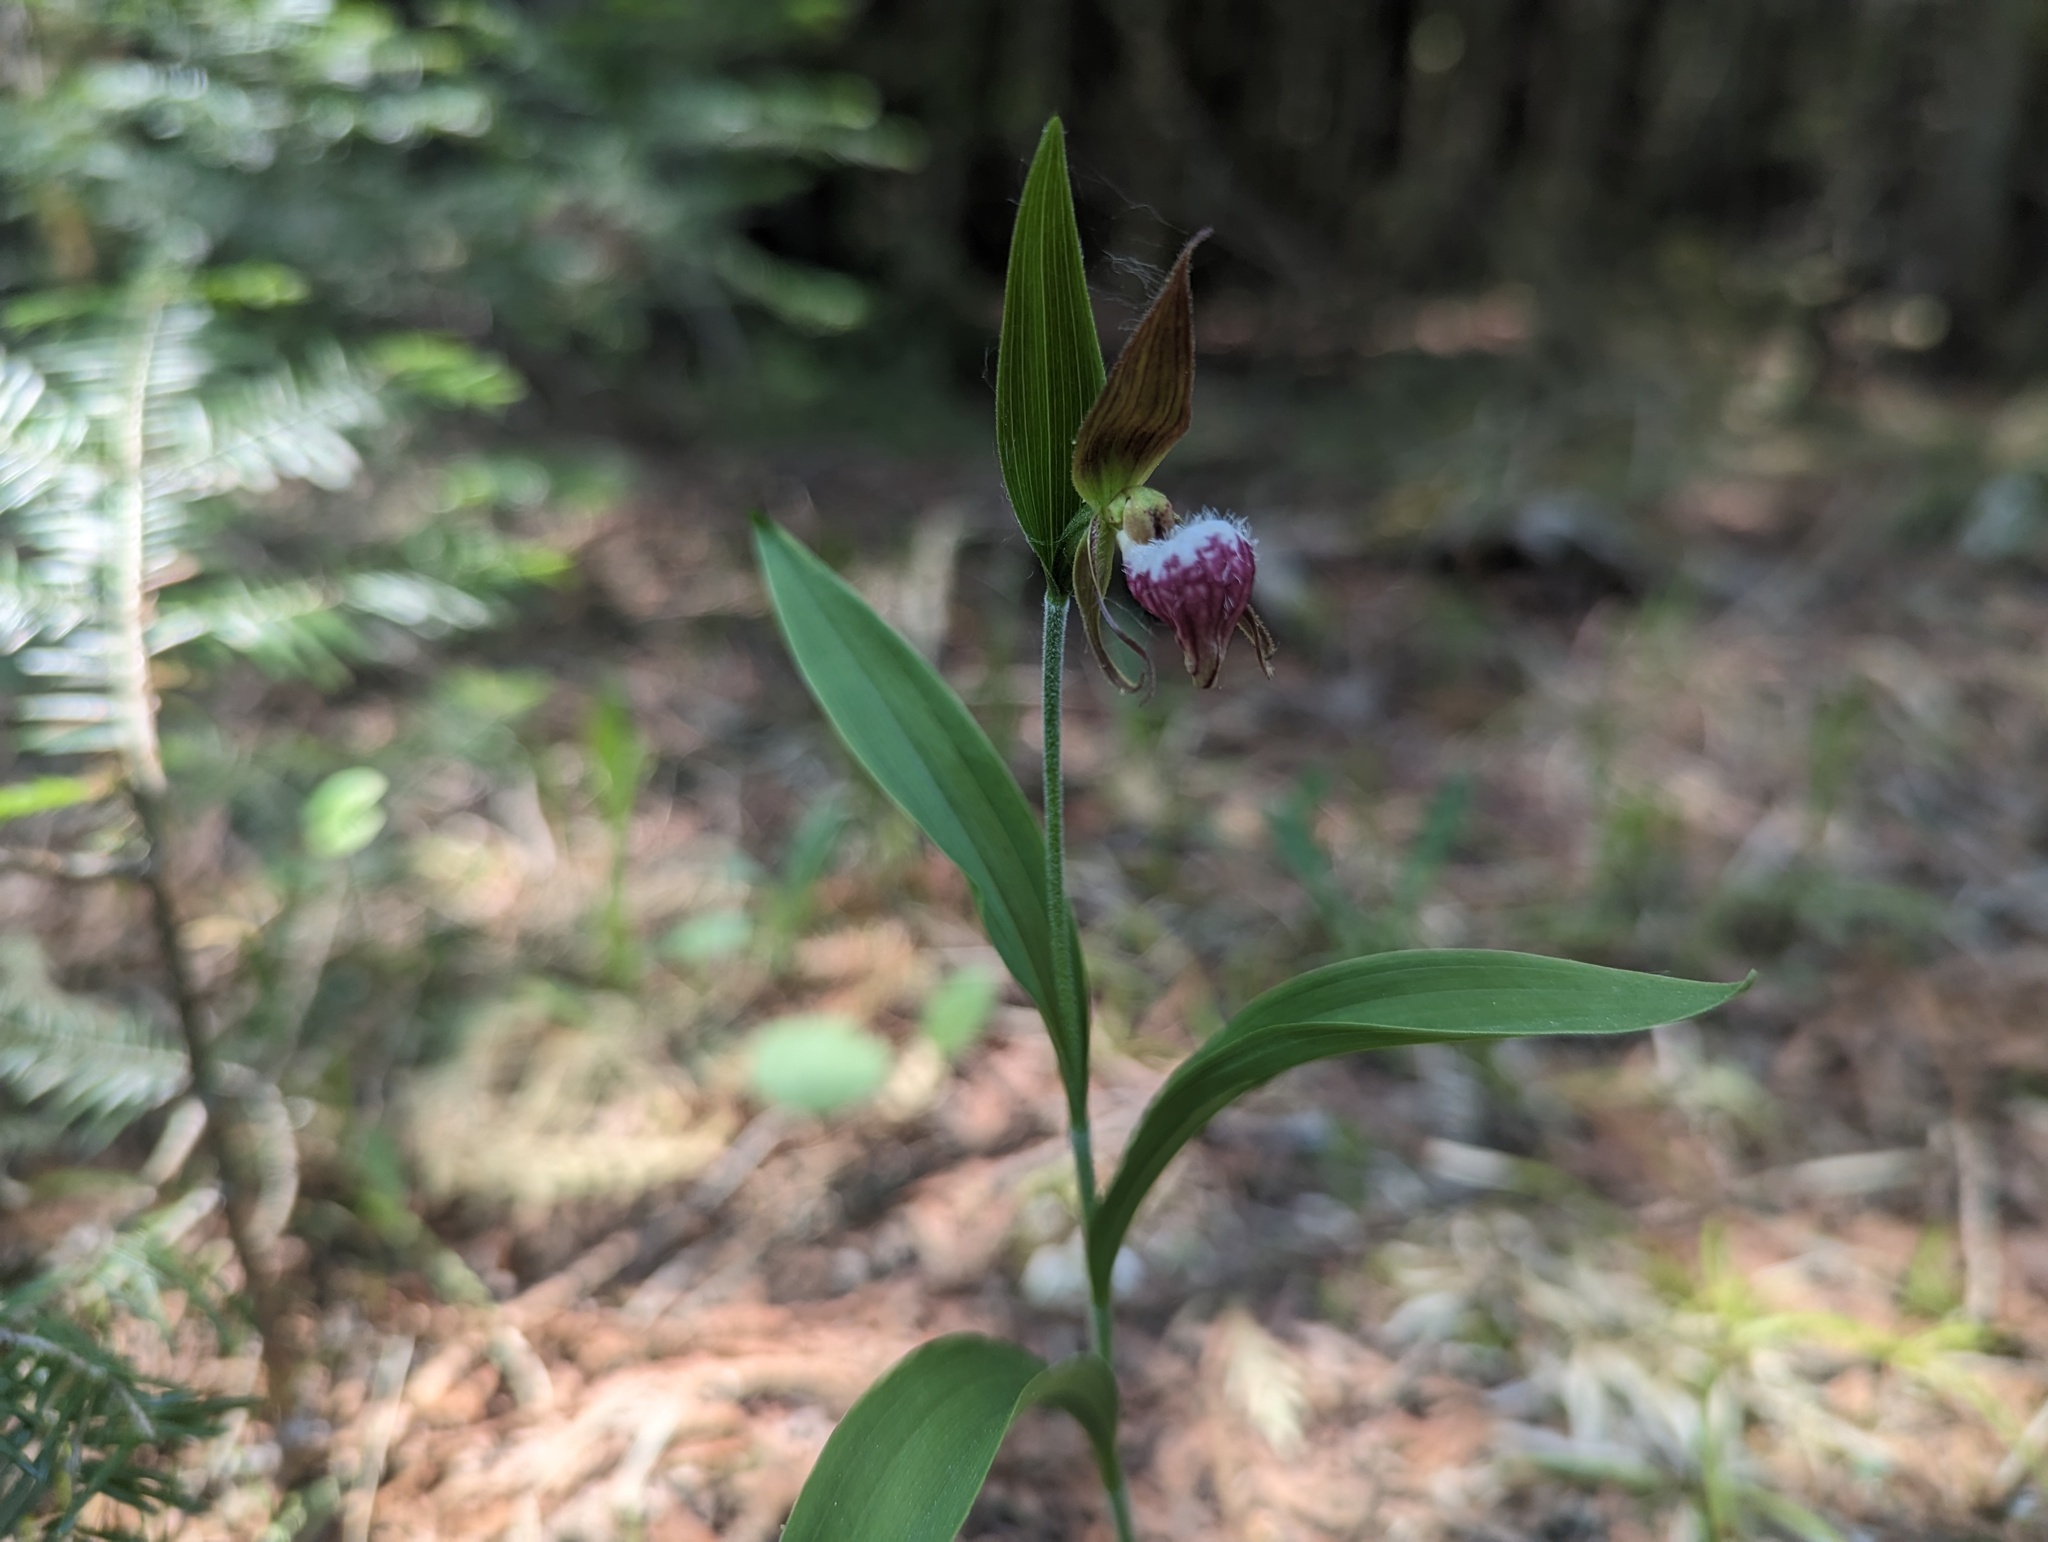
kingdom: Plantae
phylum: Tracheophyta
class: Liliopsida
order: Asparagales
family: Orchidaceae
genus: Cypripedium
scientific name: Cypripedium arietinum
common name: Ram's-head
